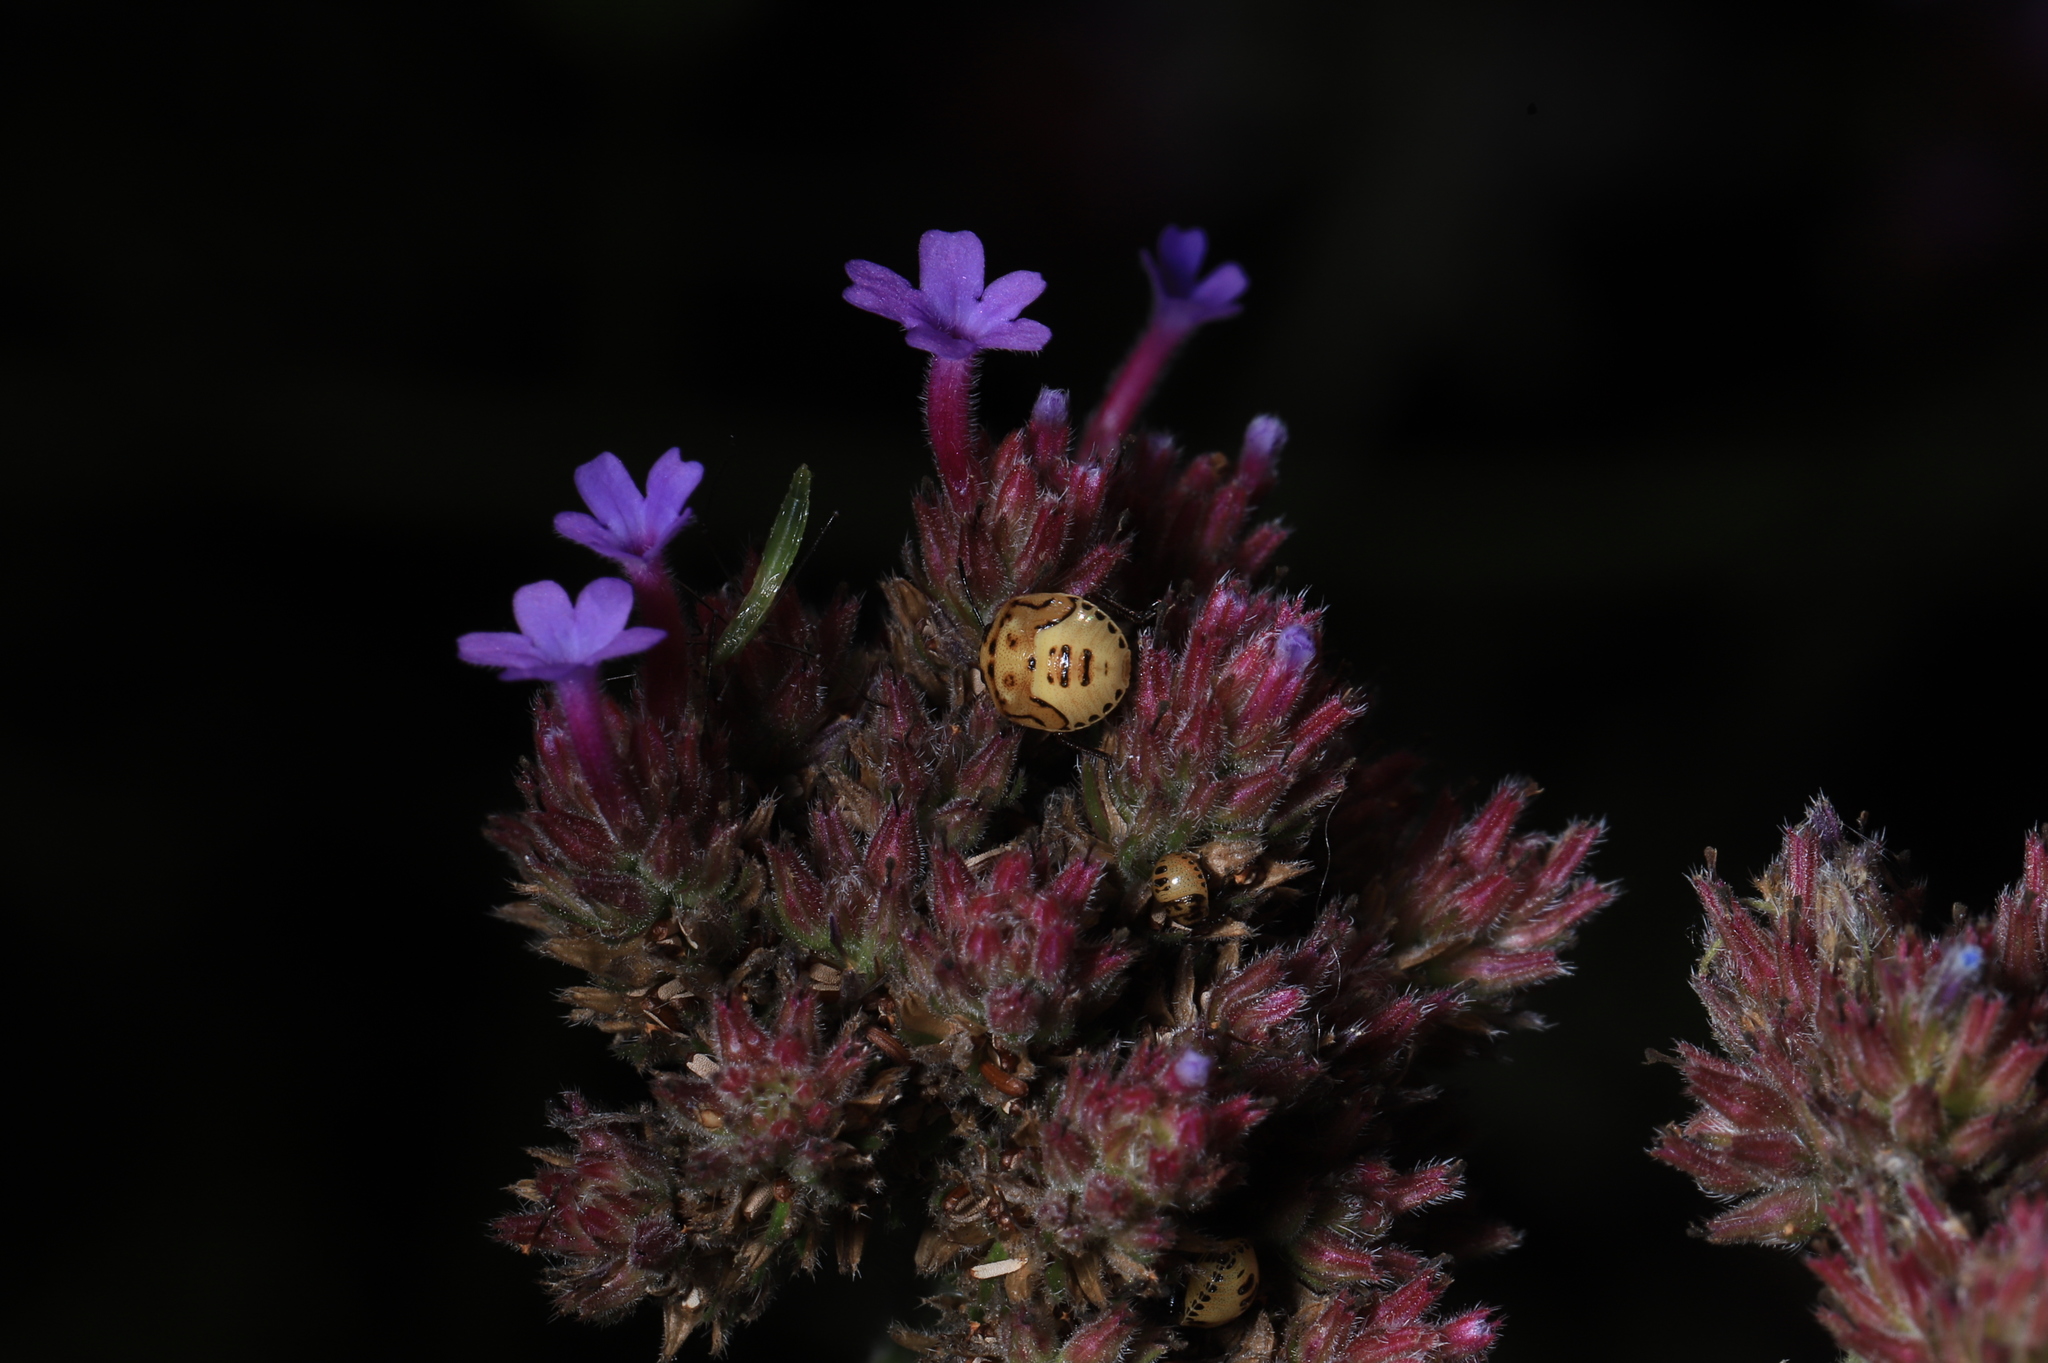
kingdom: Animalia
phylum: Arthropoda
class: Insecta
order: Hemiptera
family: Pentatomidae
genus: Cosmopepla
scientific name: Cosmopepla lintneriana
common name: Twice-stabbed stink bug
